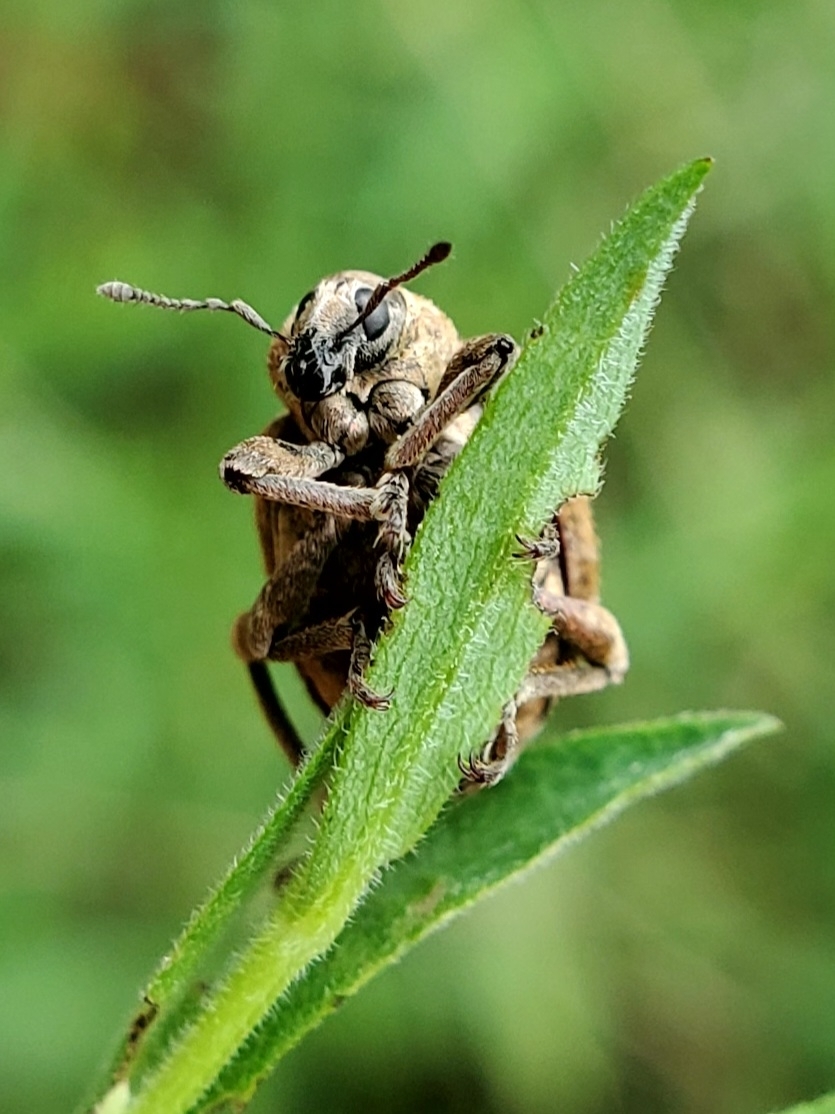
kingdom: Animalia
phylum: Arthropoda
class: Insecta
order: Coleoptera
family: Curculionidae
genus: Brachypera
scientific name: Brachypera zoilus
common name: Clover leaf weevil
